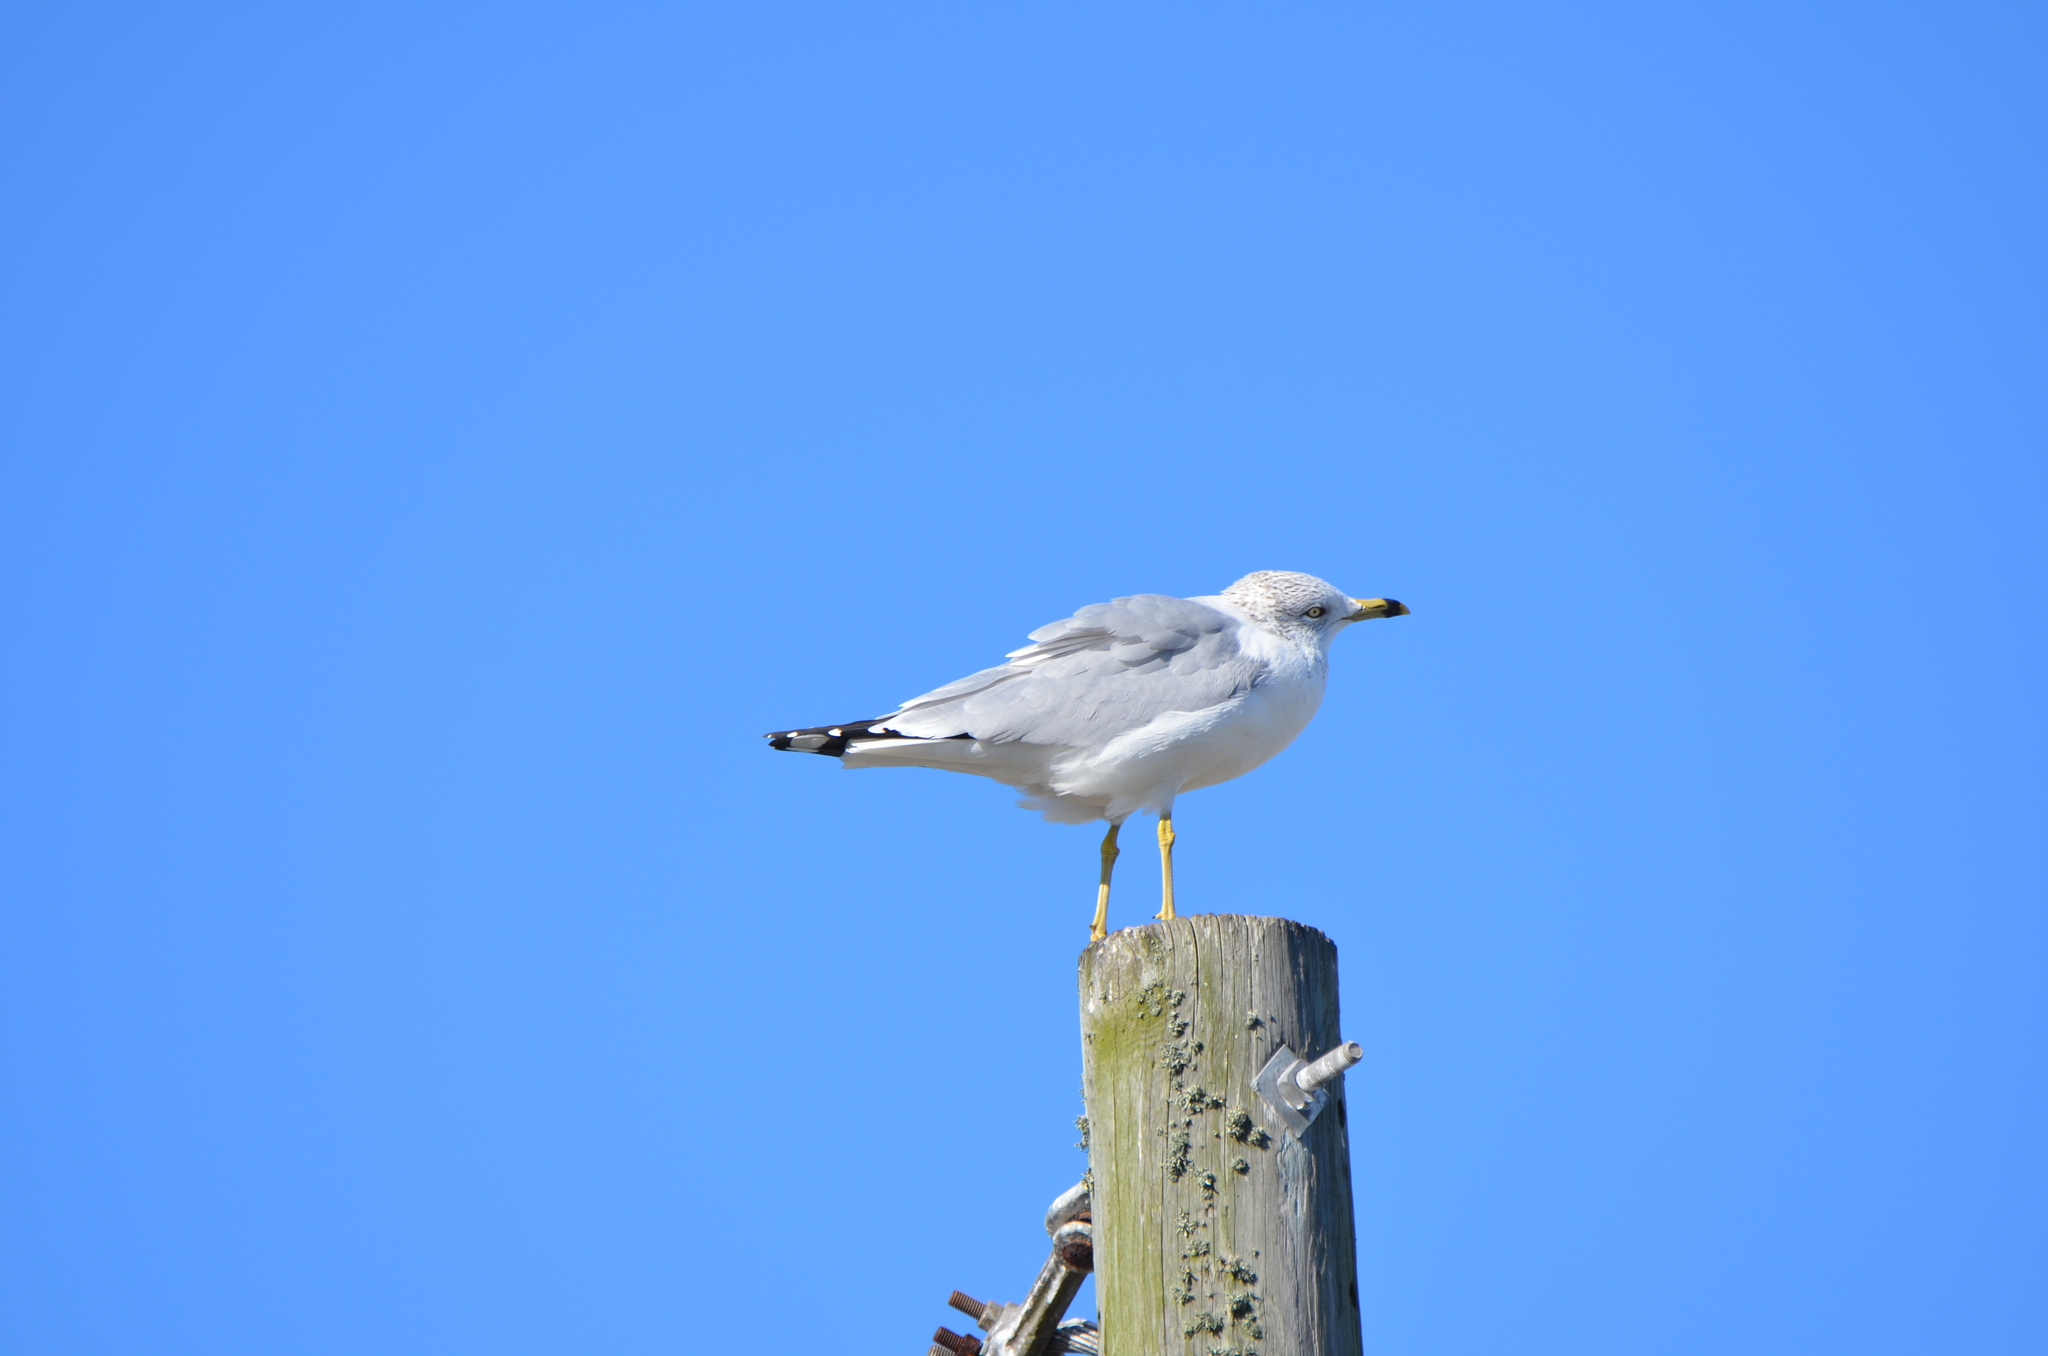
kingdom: Animalia
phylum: Chordata
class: Aves
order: Charadriiformes
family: Laridae
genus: Larus
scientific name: Larus delawarensis
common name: Ring-billed gull
